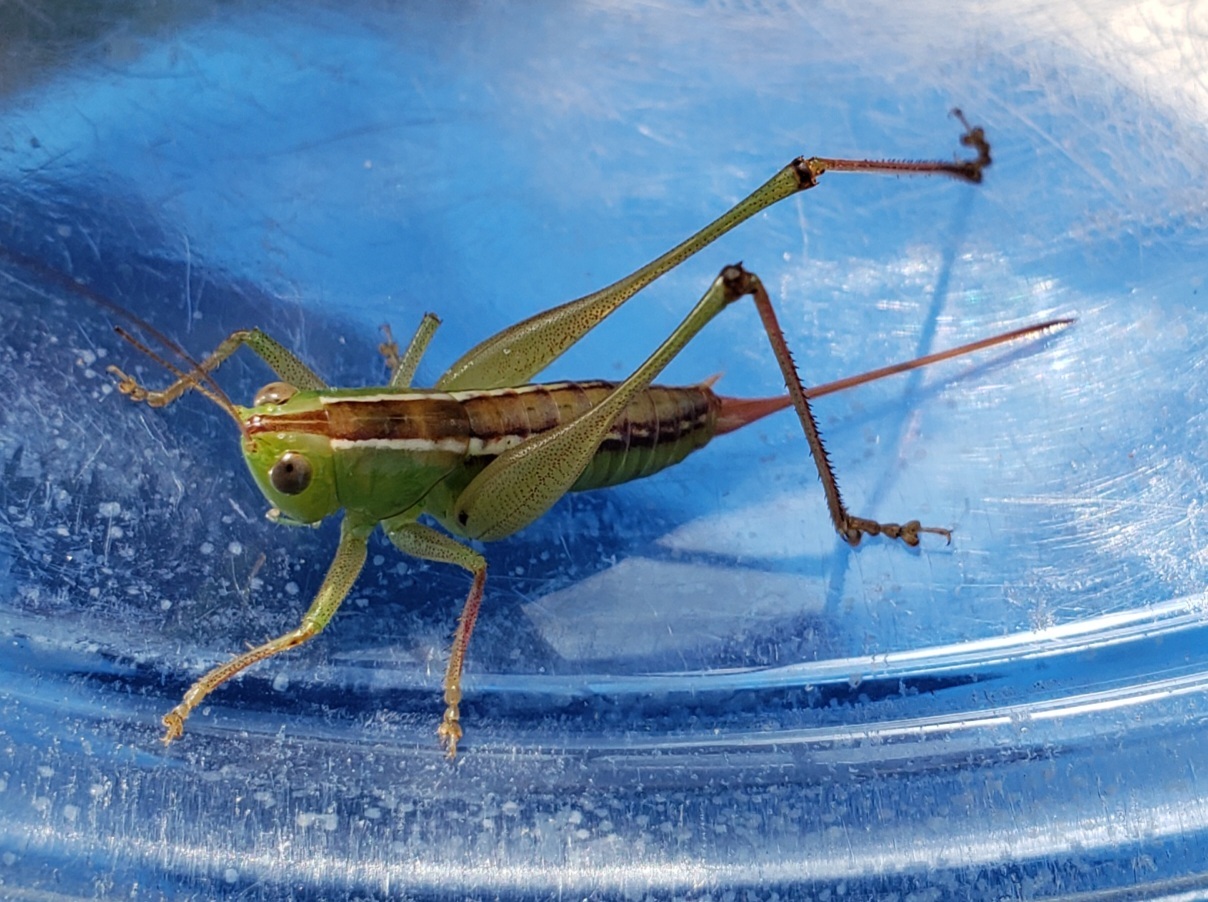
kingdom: Animalia
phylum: Arthropoda
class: Insecta
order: Orthoptera
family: Tettigoniidae
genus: Odontoxiphidium
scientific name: Odontoxiphidium apterum
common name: Wingless meadow katydid
